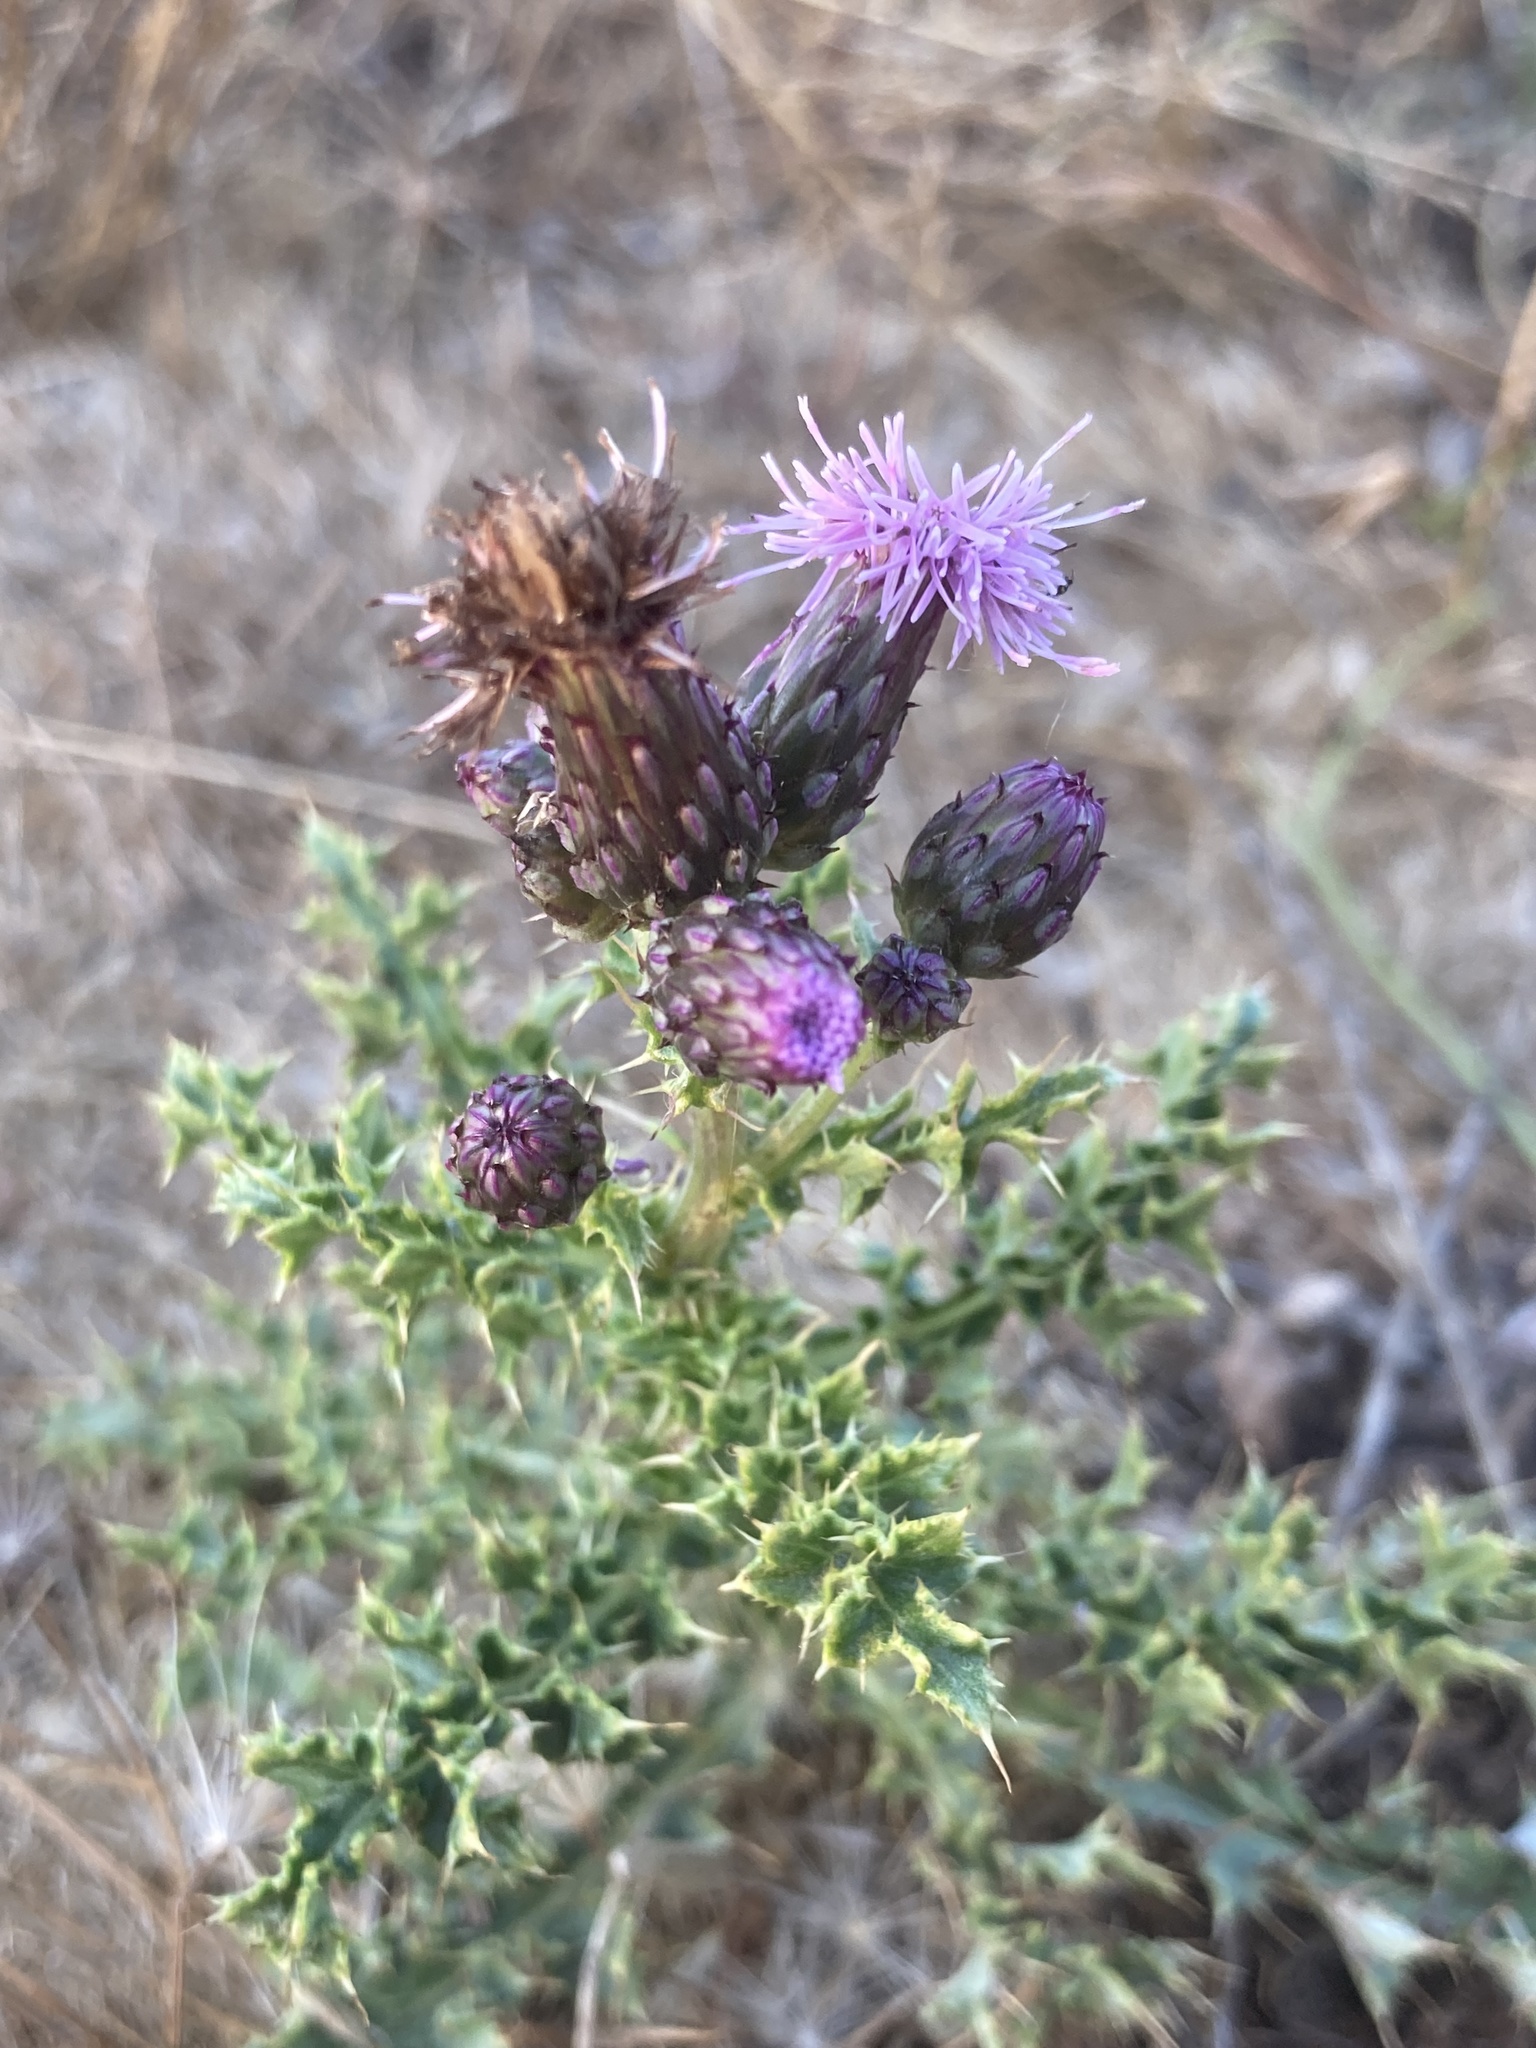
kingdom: Plantae
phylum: Tracheophyta
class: Magnoliopsida
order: Asterales
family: Asteraceae
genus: Cirsium
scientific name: Cirsium arvense
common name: Creeping thistle
